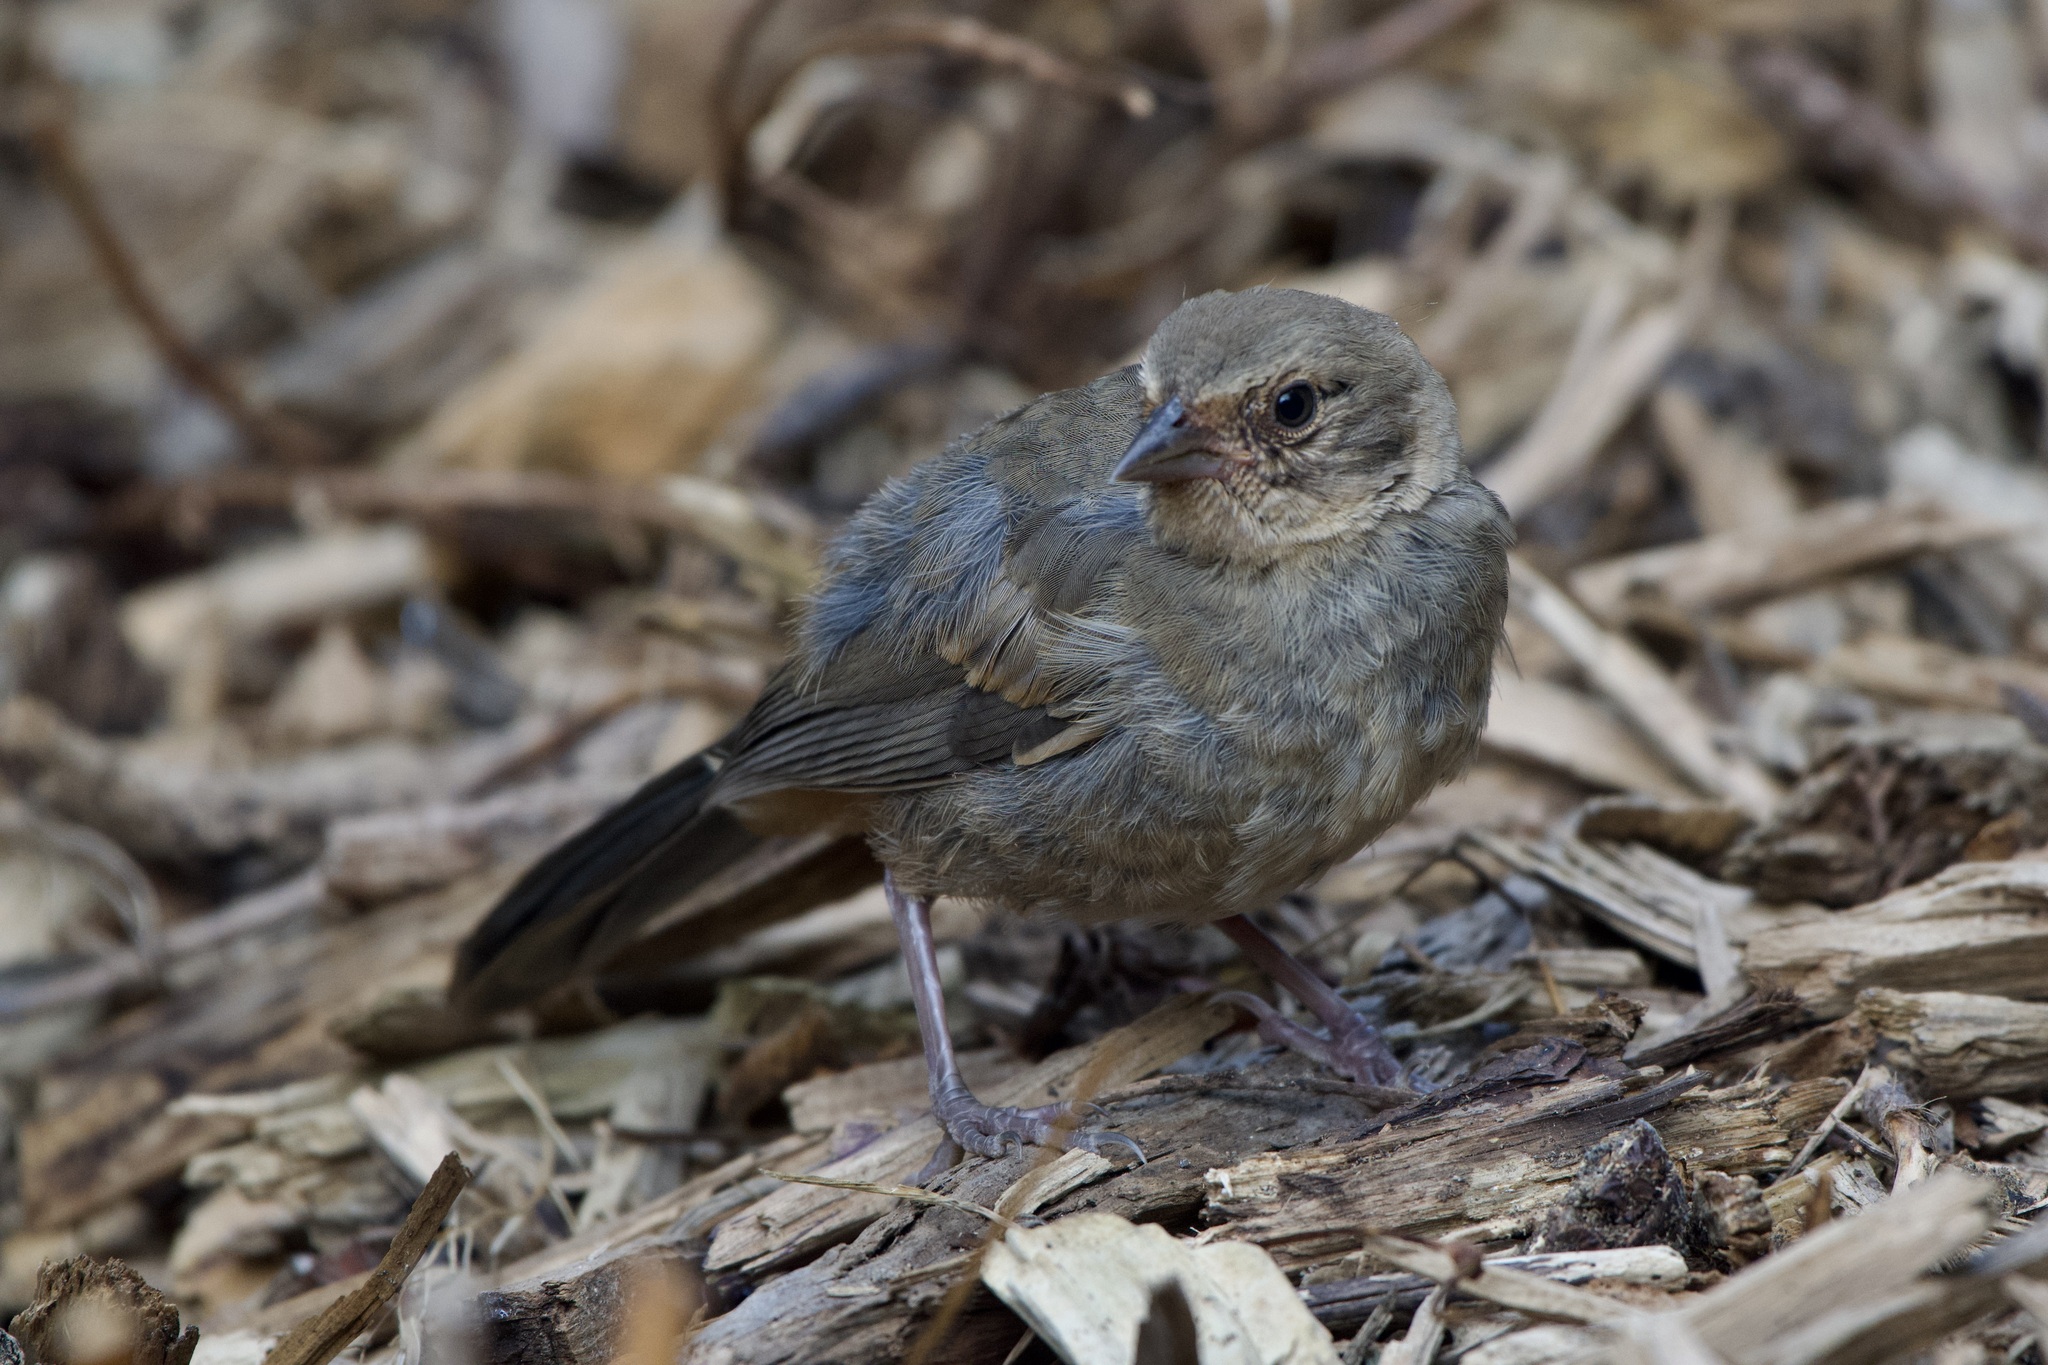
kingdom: Animalia
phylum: Chordata
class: Aves
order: Passeriformes
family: Passerellidae
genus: Melozone
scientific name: Melozone crissalis
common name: California towhee
